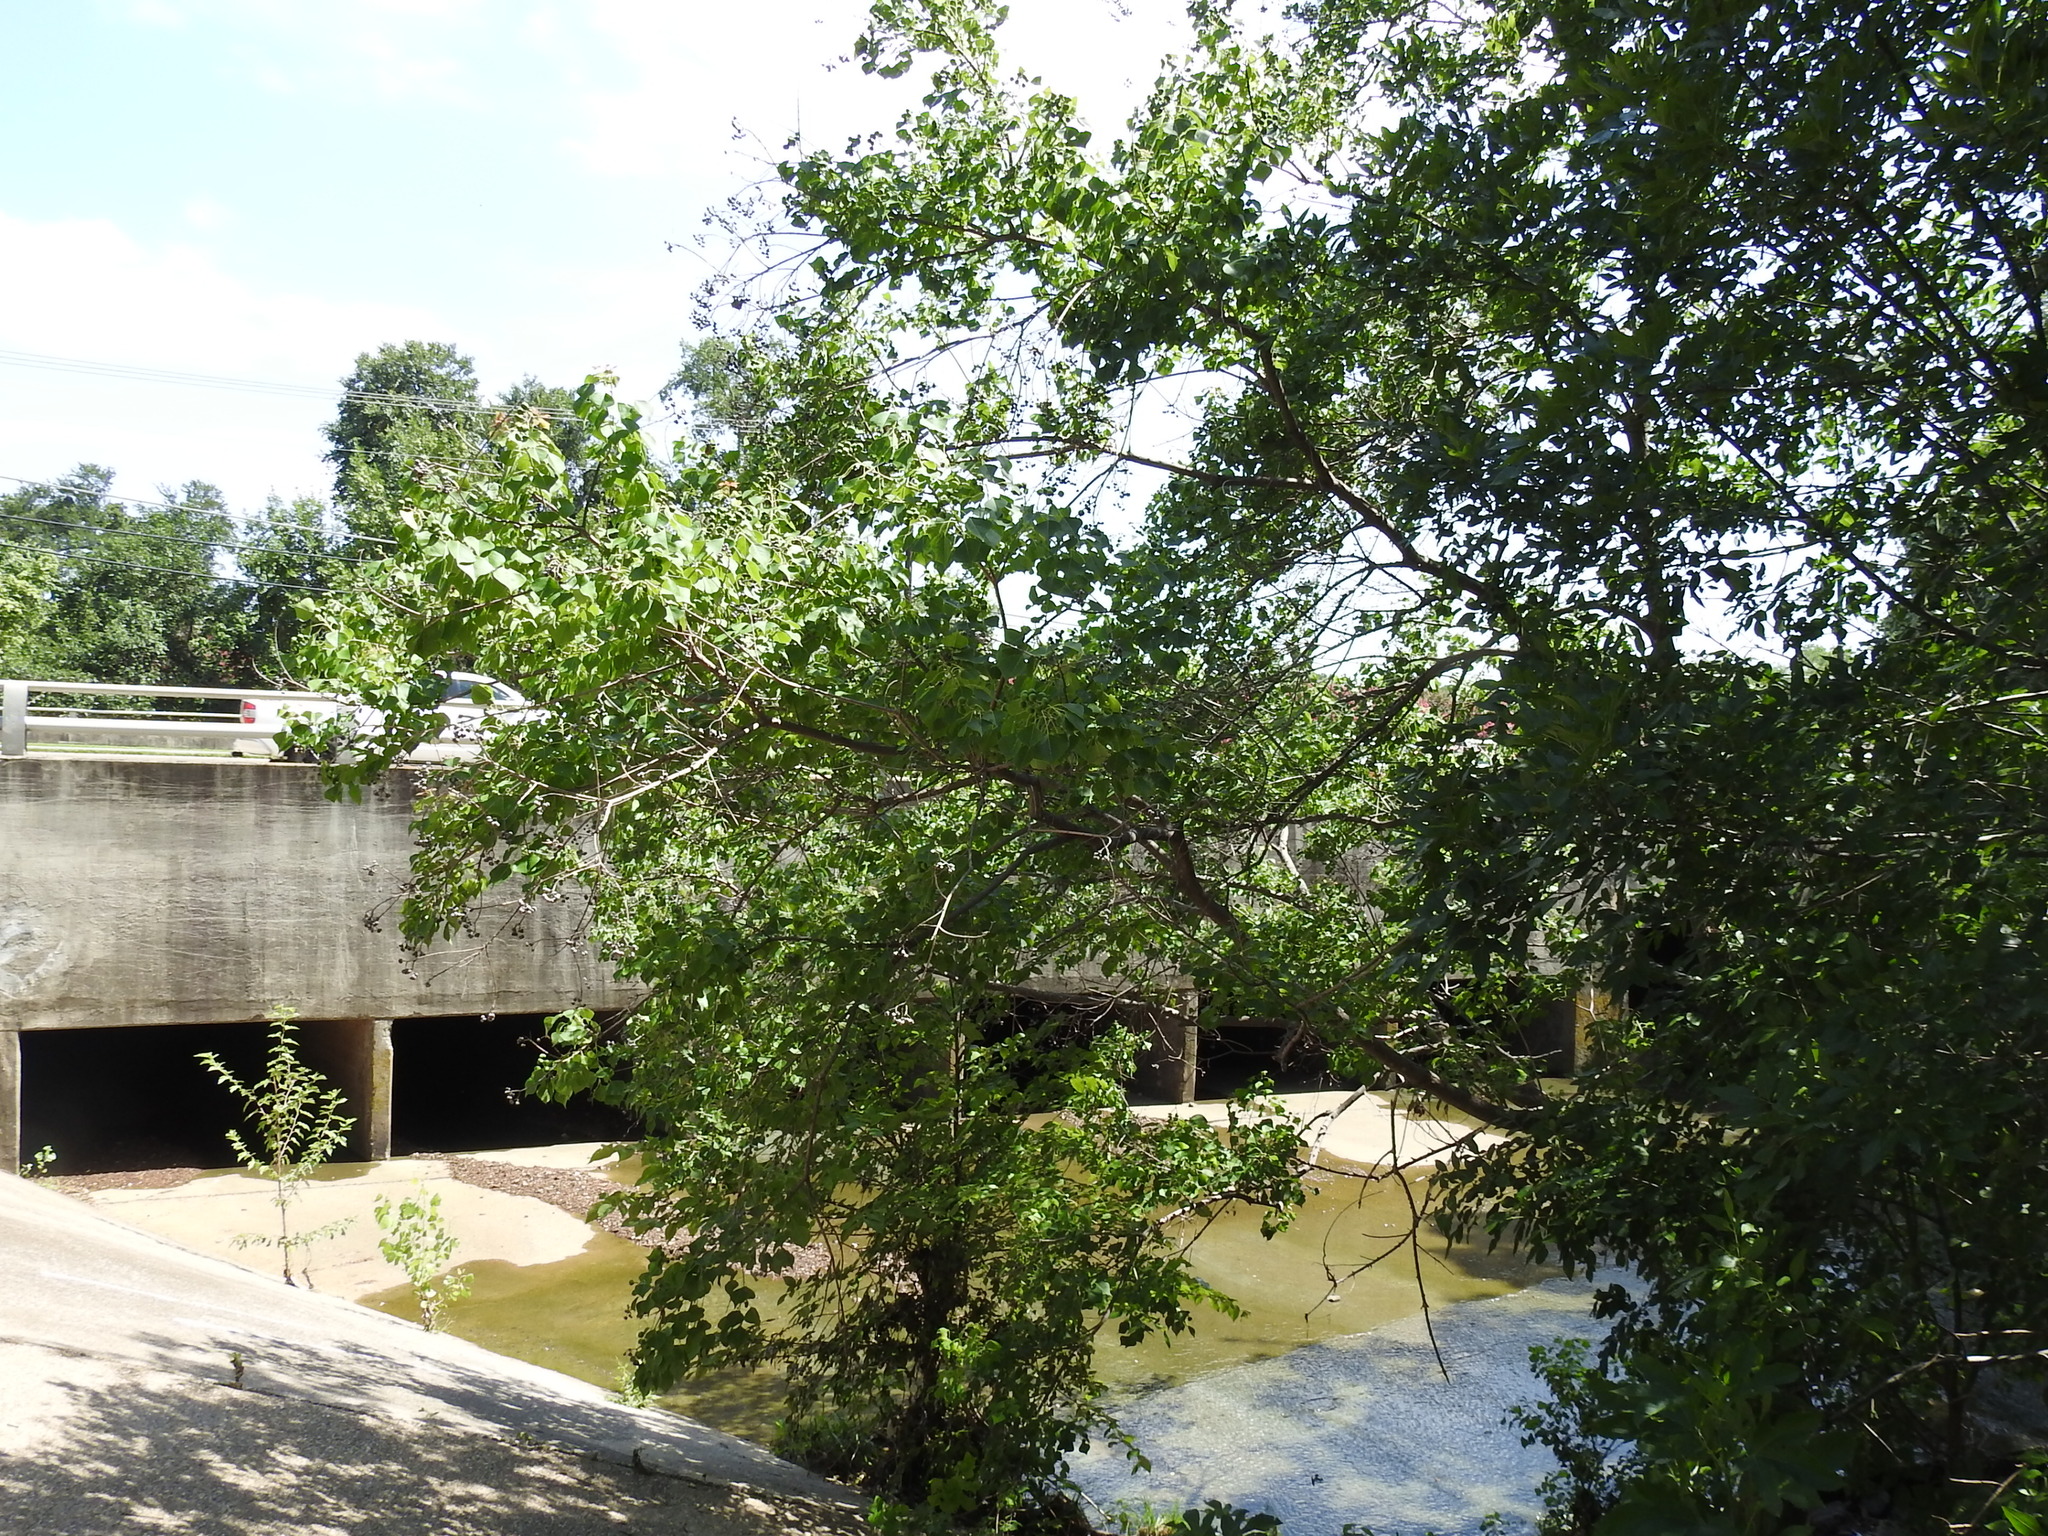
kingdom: Plantae
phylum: Tracheophyta
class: Magnoliopsida
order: Malpighiales
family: Euphorbiaceae
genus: Triadica
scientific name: Triadica sebifera
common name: Chinese tallow
